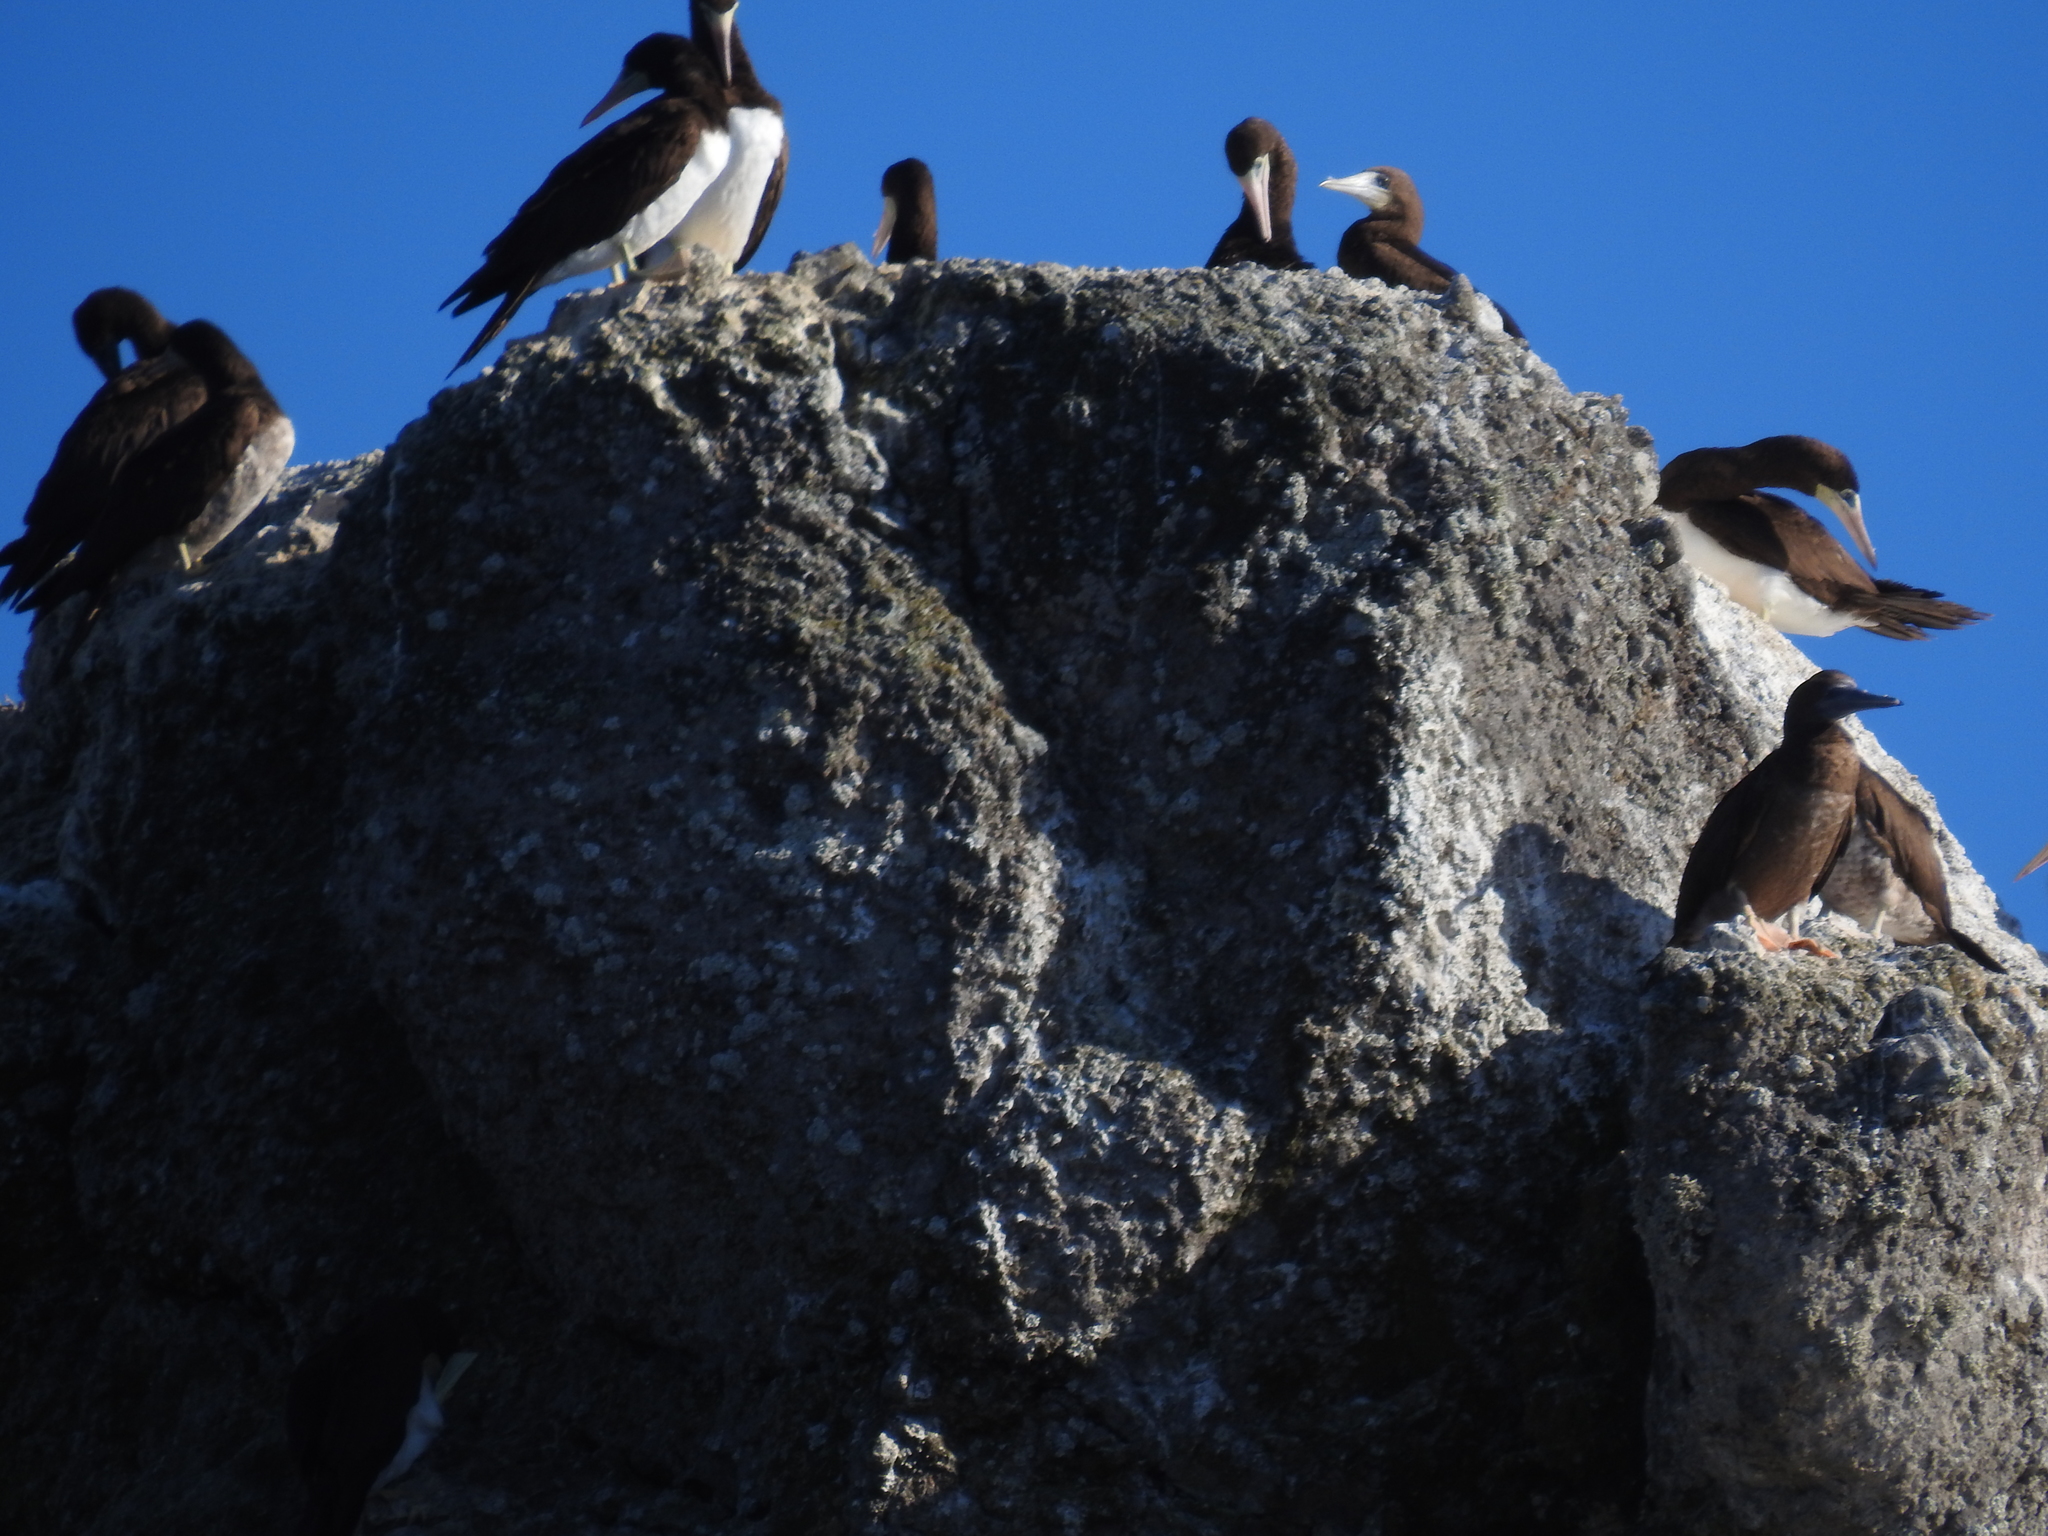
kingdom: Animalia
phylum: Chordata
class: Aves
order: Suliformes
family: Sulidae
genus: Sula
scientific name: Sula leucogaster
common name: Brown booby
